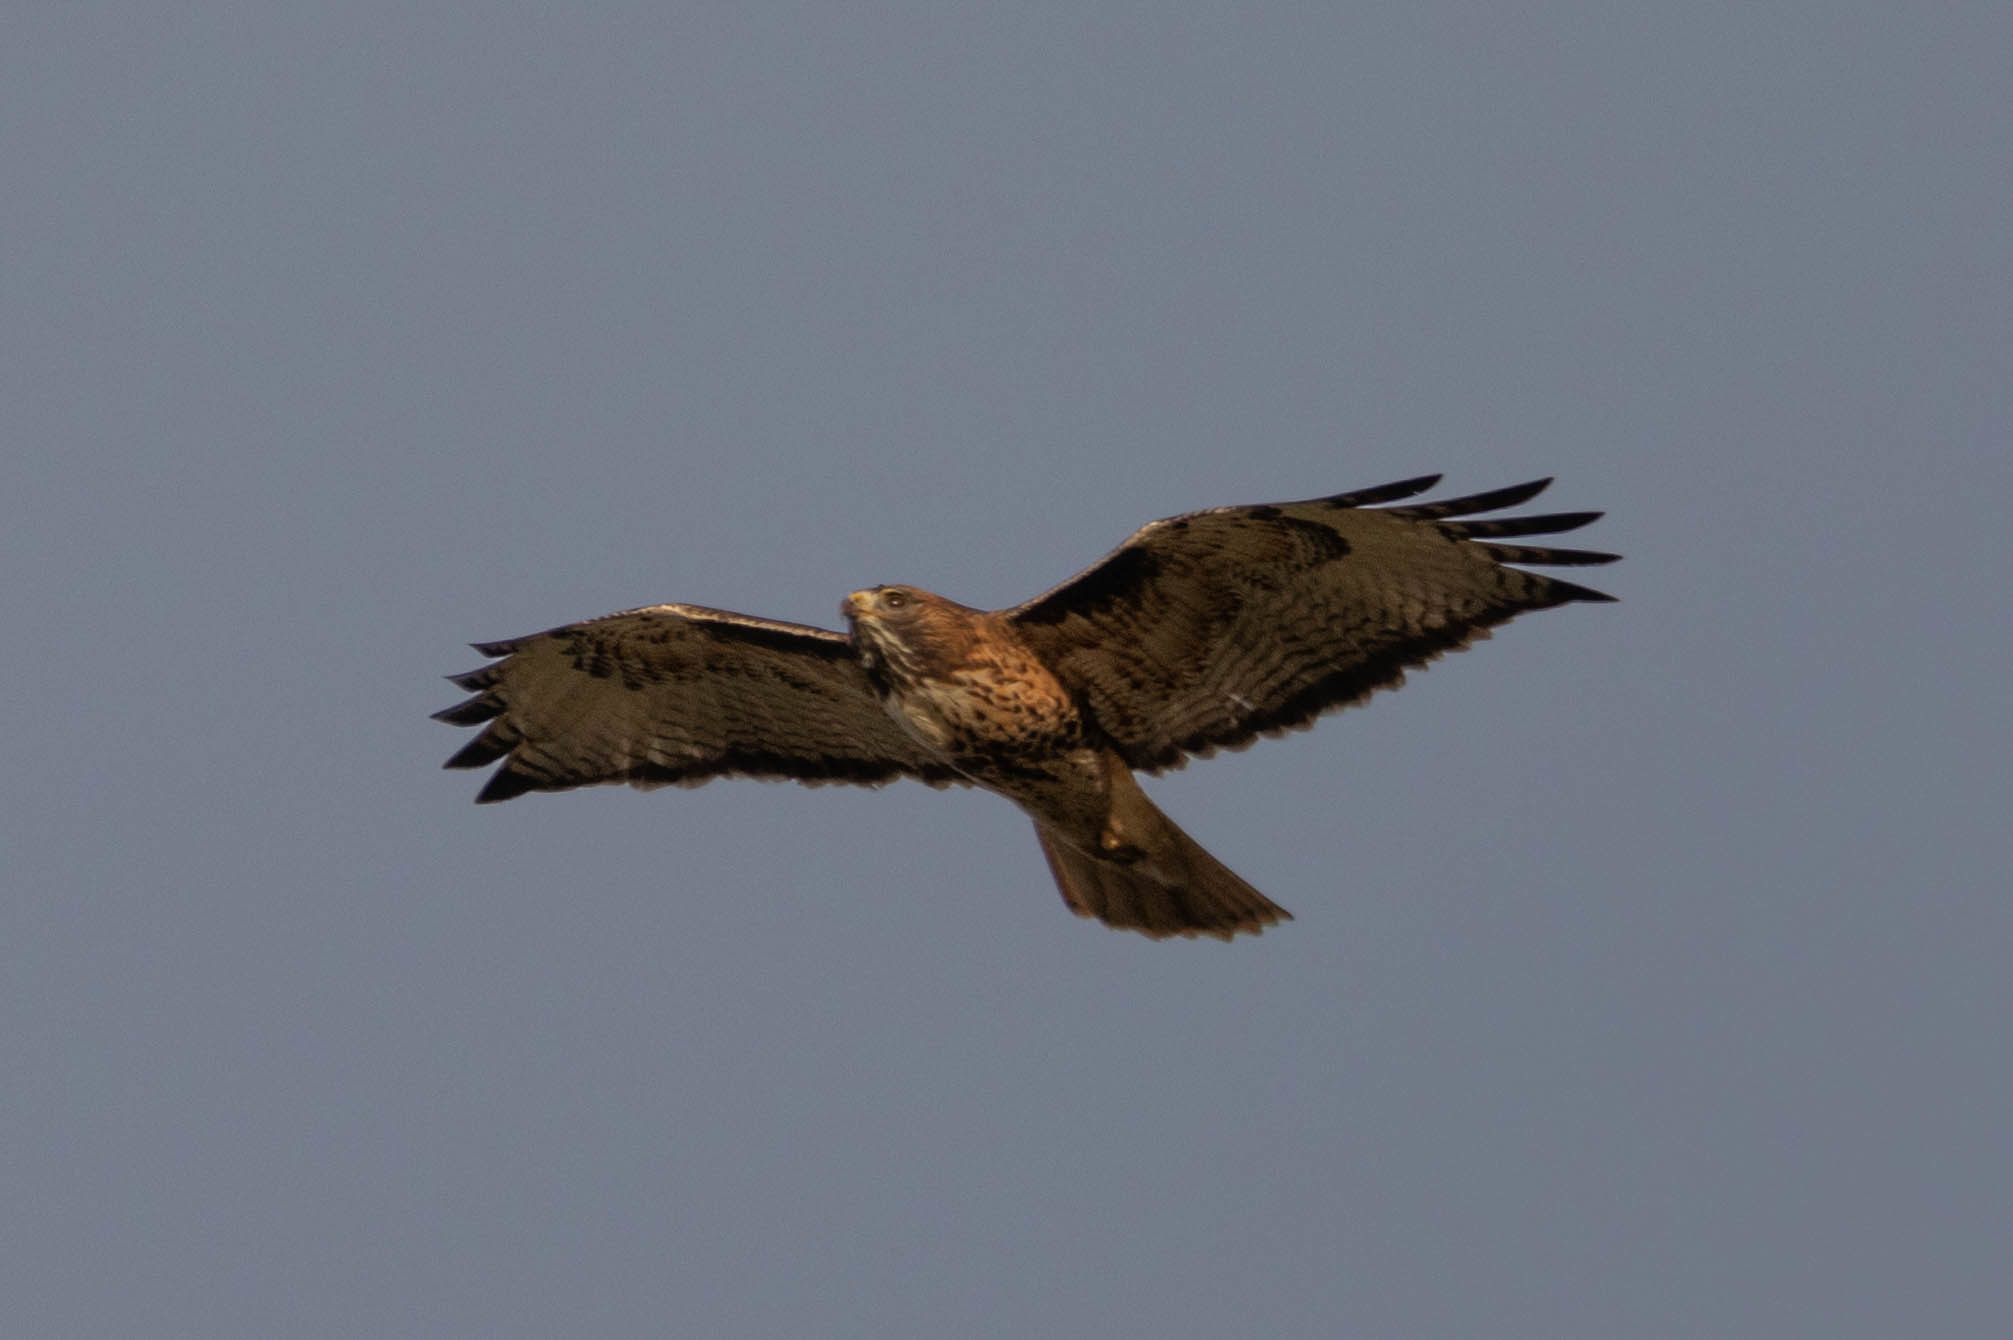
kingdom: Animalia
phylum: Chordata
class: Aves
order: Accipitriformes
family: Accipitridae
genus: Buteo
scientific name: Buteo jamaicensis
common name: Red-tailed hawk
